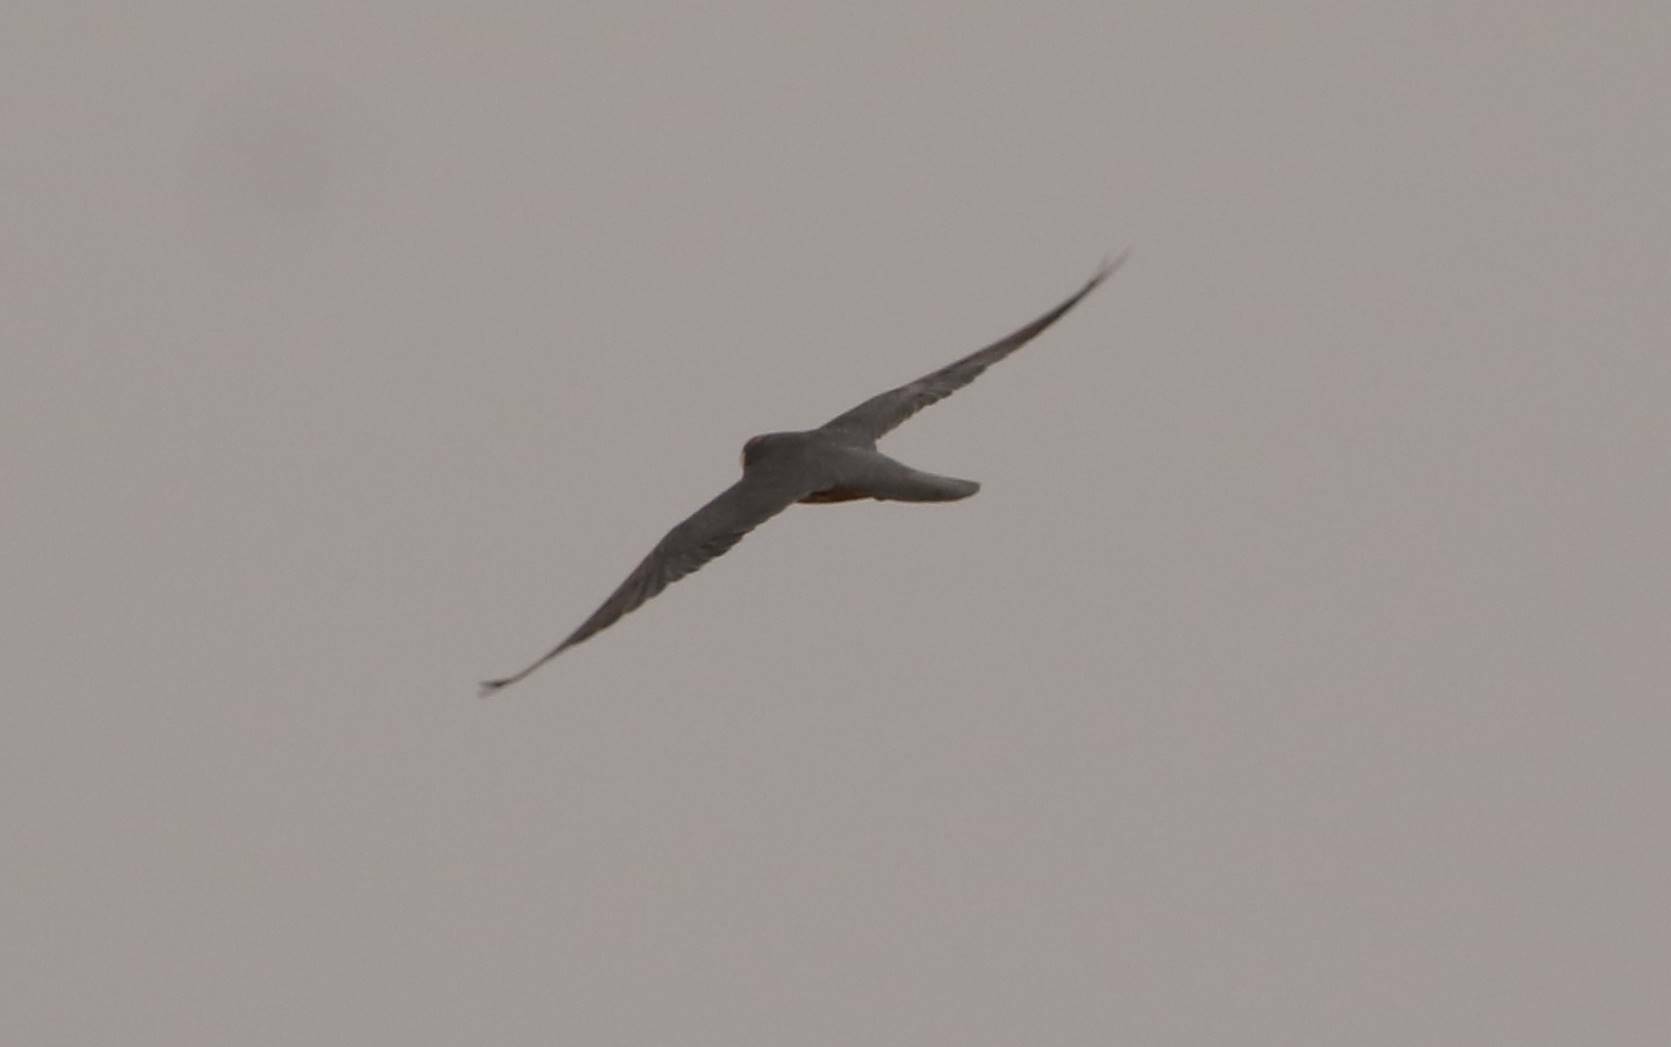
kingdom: Animalia
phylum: Chordata
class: Aves
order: Falconiformes
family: Falconidae
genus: Falco
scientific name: Falco subbuteo
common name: Eurasian hobby
